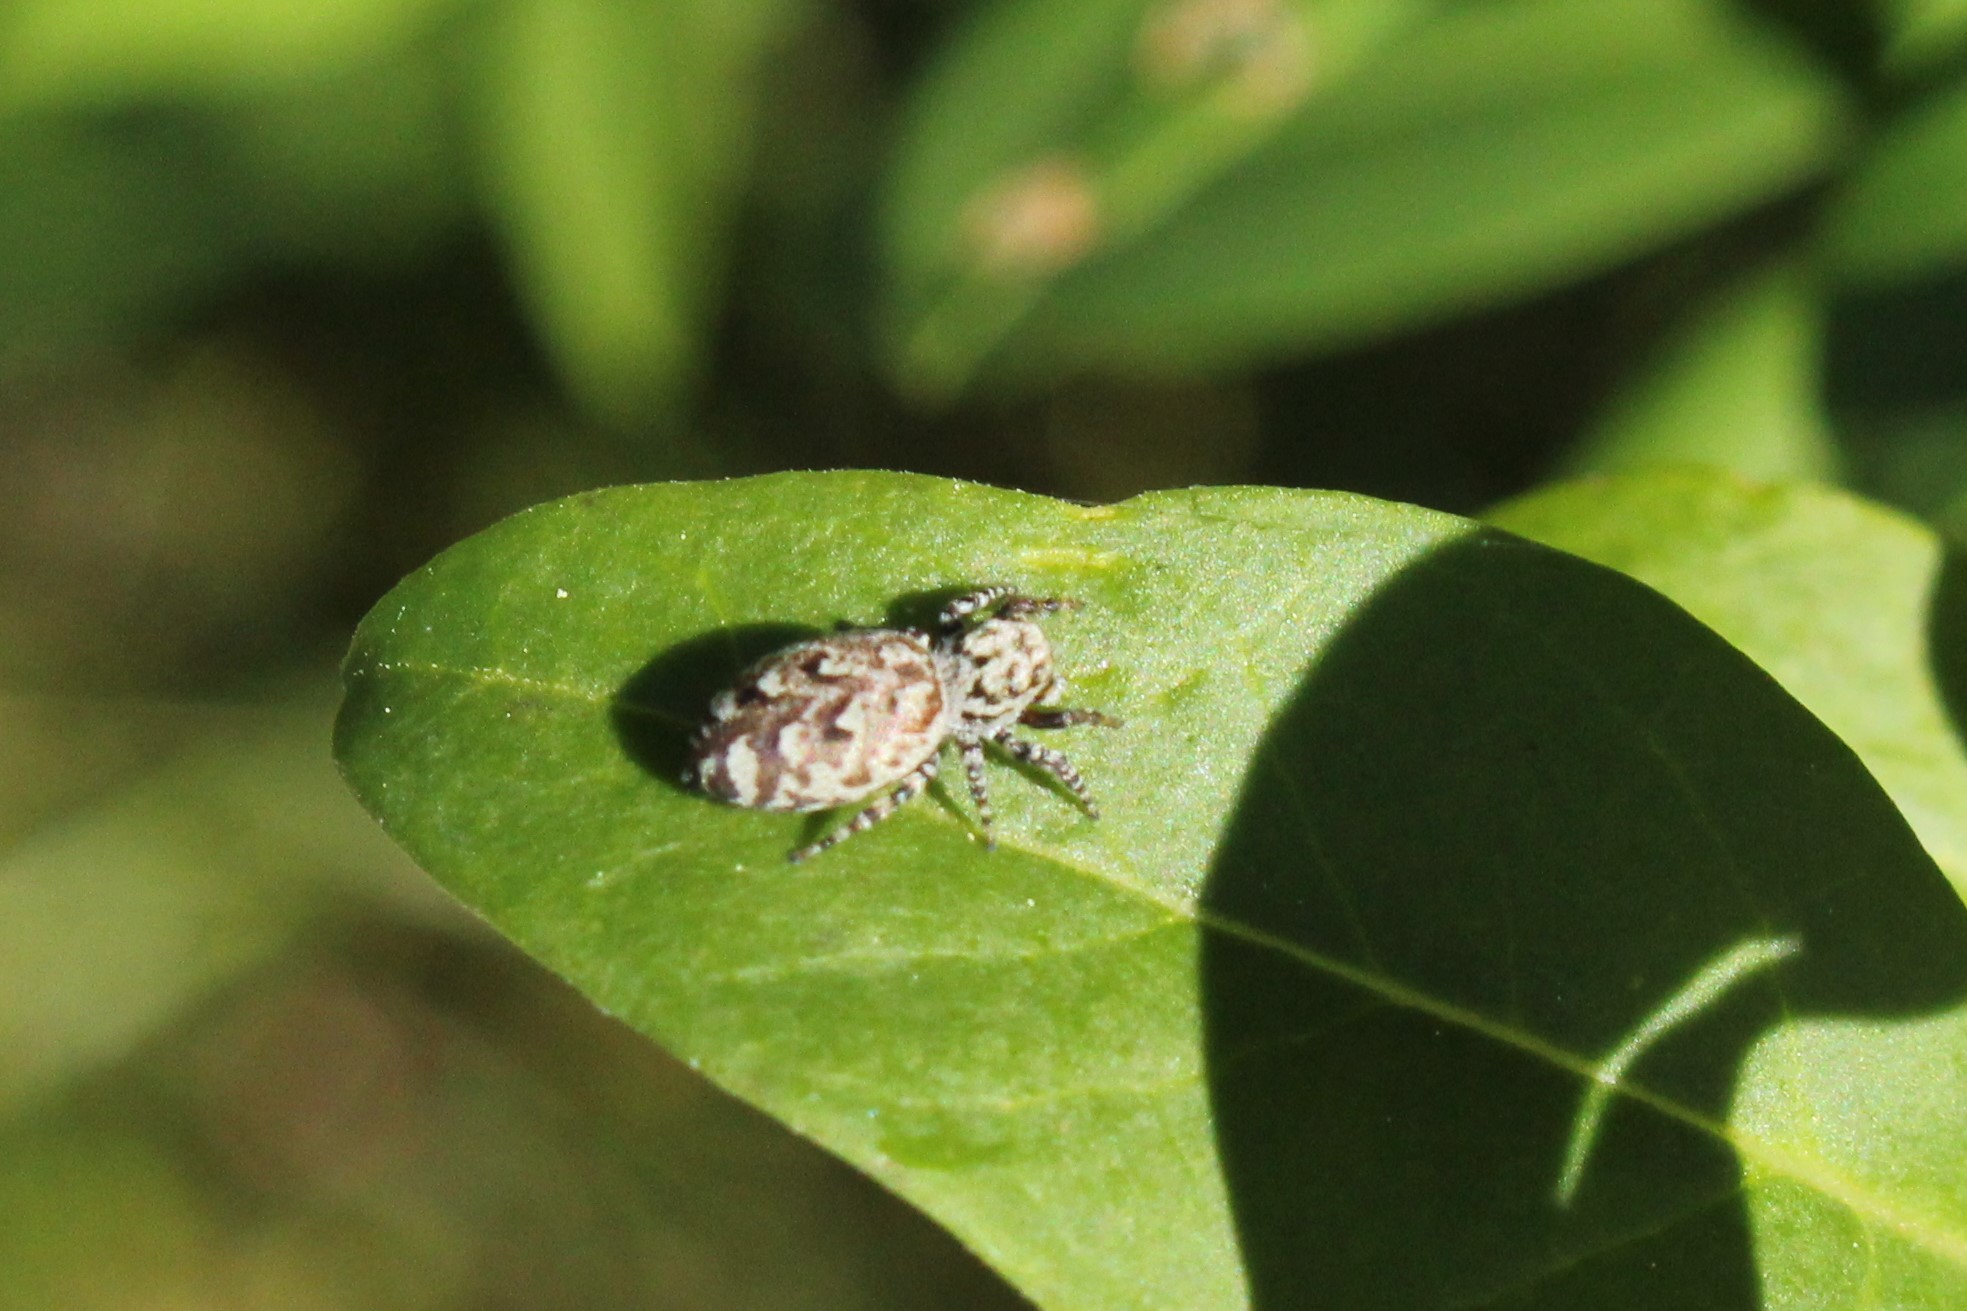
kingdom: Animalia
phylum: Arthropoda
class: Arachnida
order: Araneae
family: Salticidae
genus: Pelegrina
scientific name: Pelegrina galathea
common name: Jumping spiders
